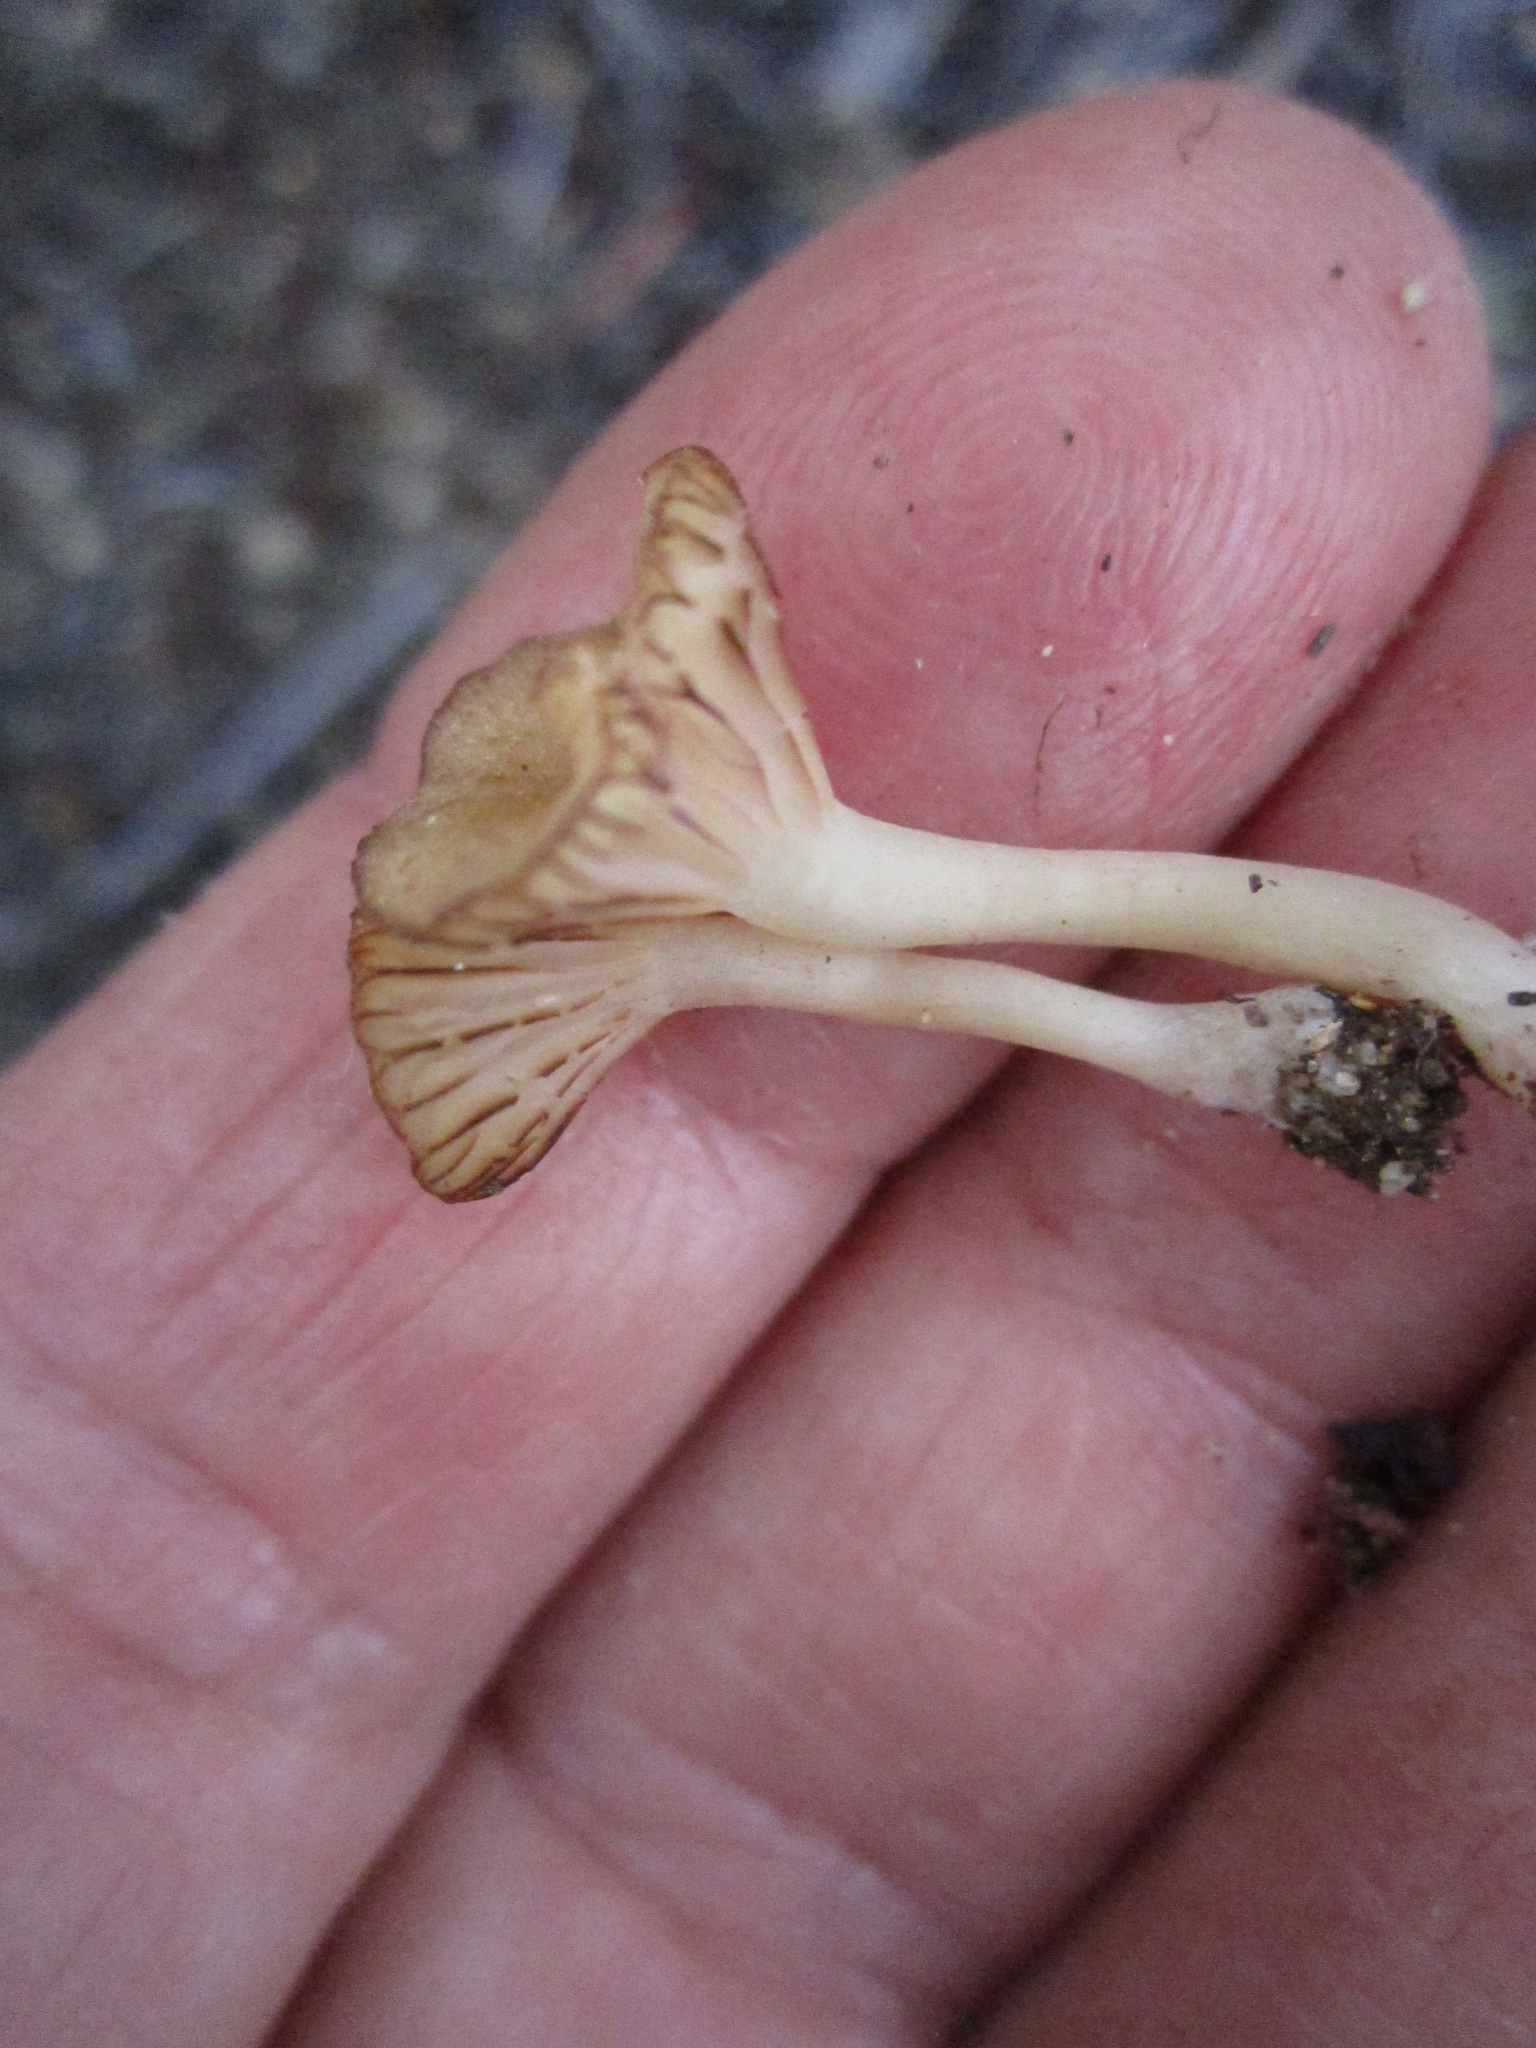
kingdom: Fungi
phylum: Basidiomycota
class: Agaricomycetes
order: Hymenochaetales
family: Rickenellaceae
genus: Contumyces
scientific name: Contumyces rosellus
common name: Rosy navel
